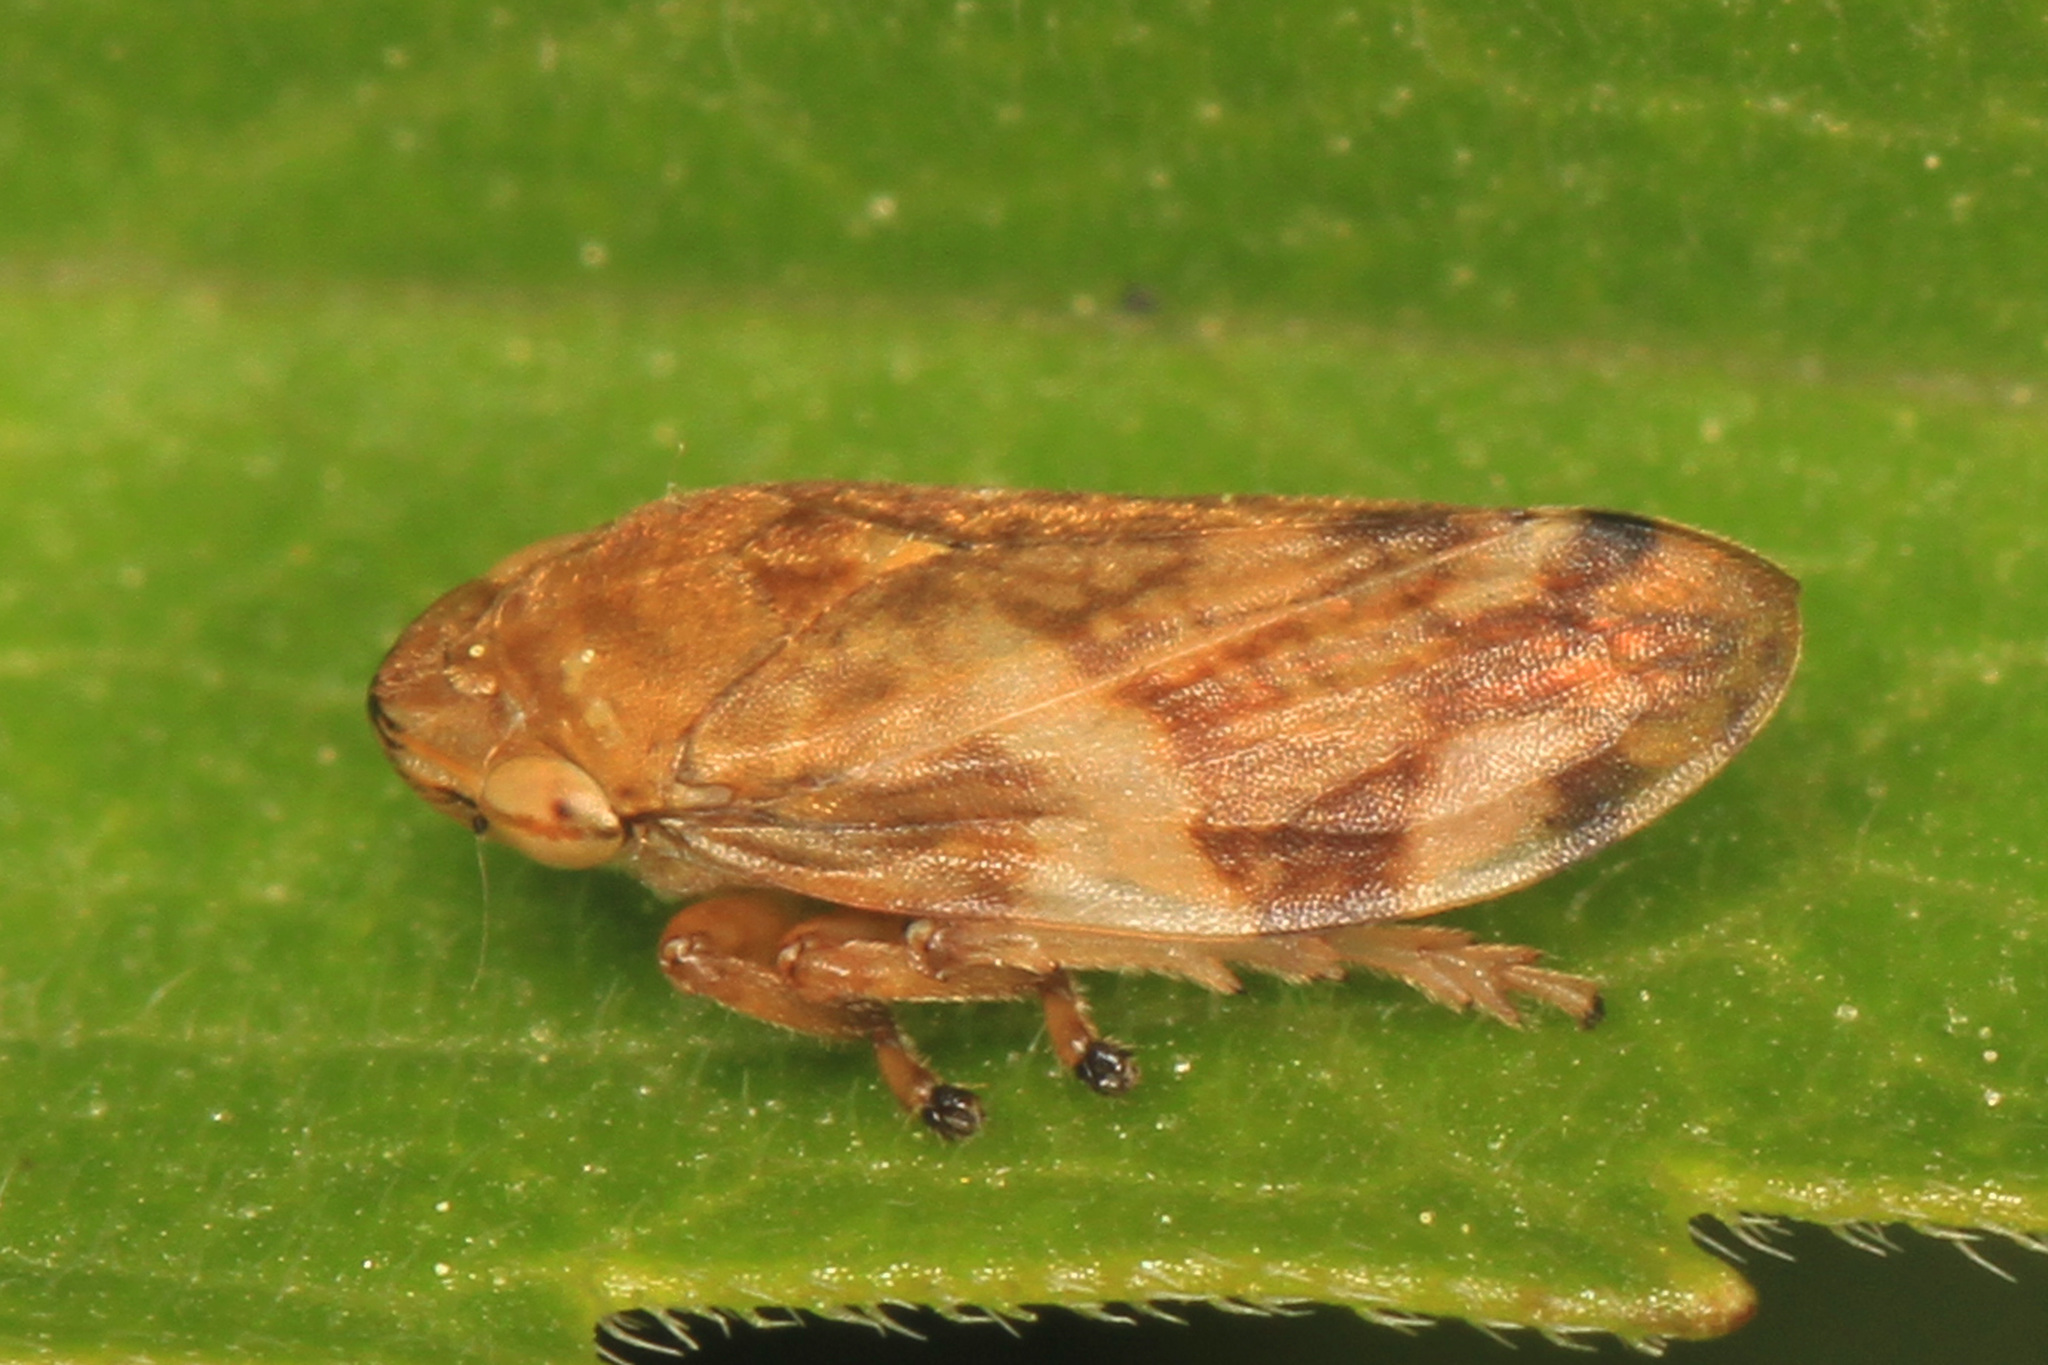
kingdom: Animalia
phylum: Arthropoda
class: Insecta
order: Hemiptera
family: Aphrophoridae
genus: Philaenus
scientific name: Philaenus spumarius
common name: Meadow spittlebug
